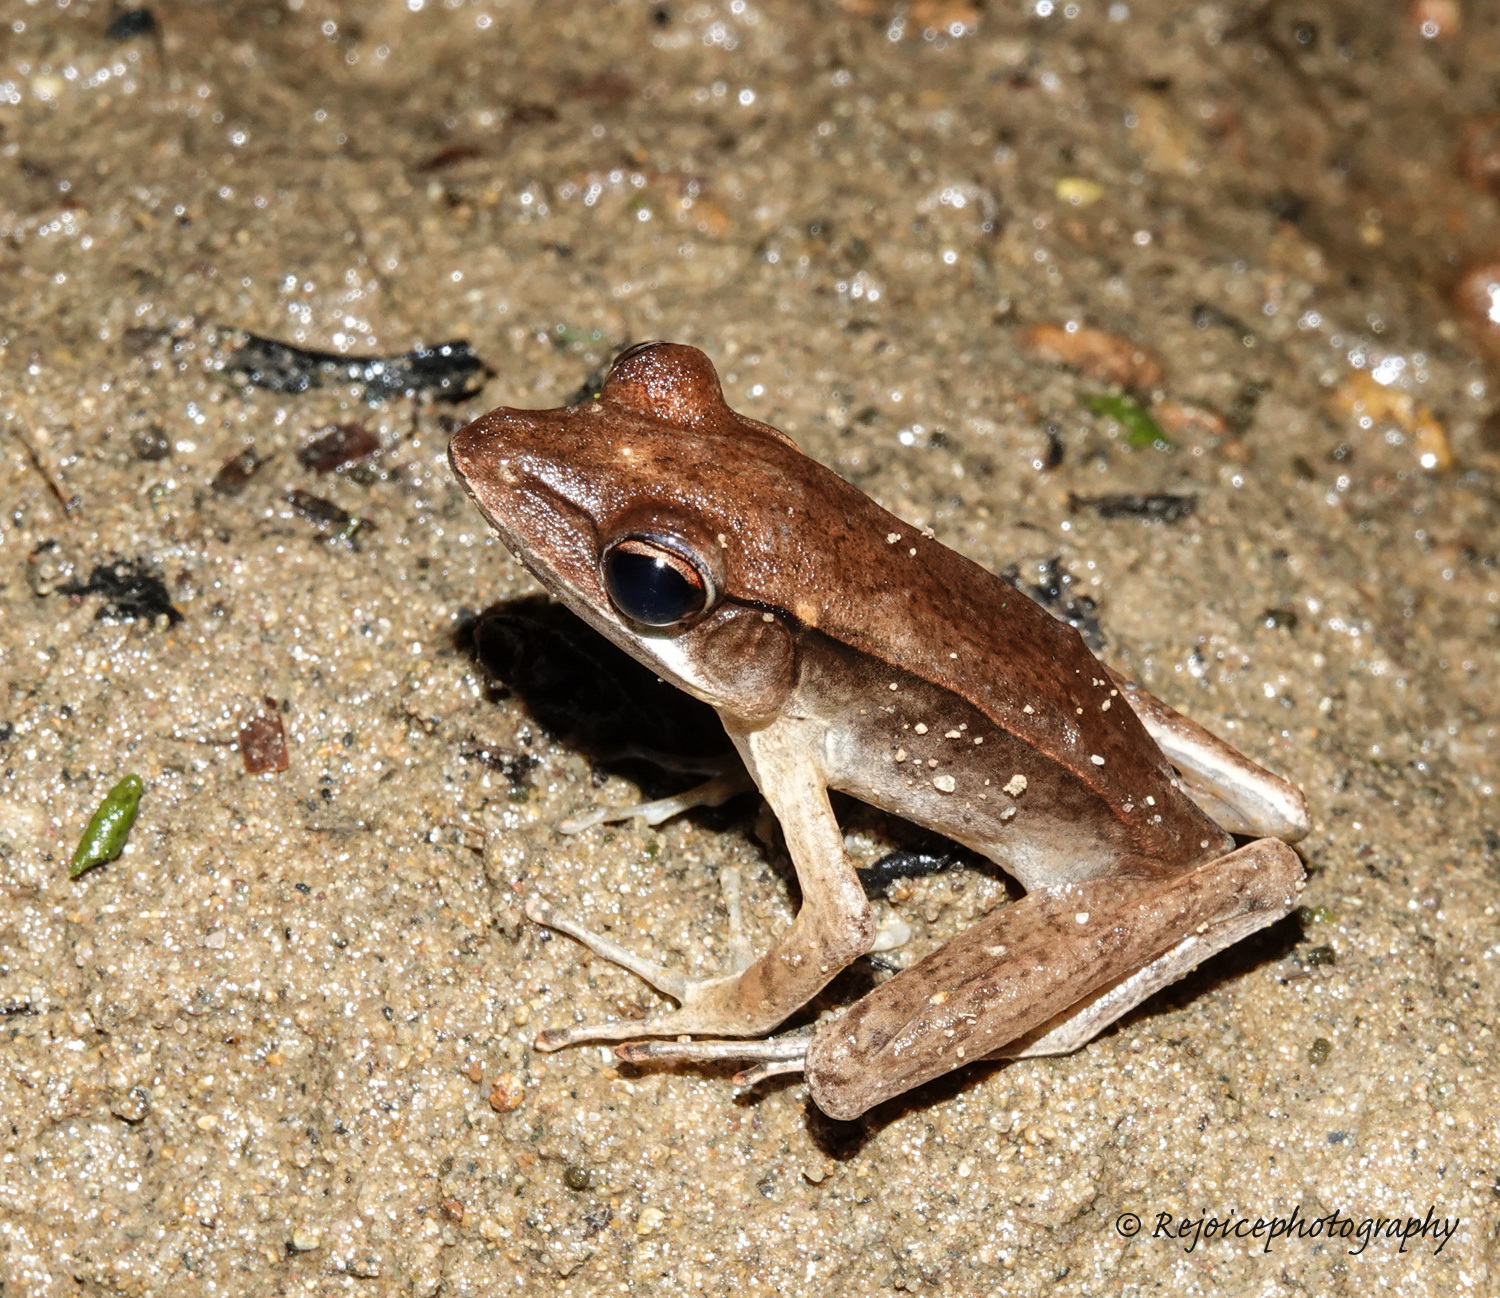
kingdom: Animalia
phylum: Chordata
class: Amphibia
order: Anura
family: Ranidae
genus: Clinotarsus
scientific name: Clinotarsus alticola
